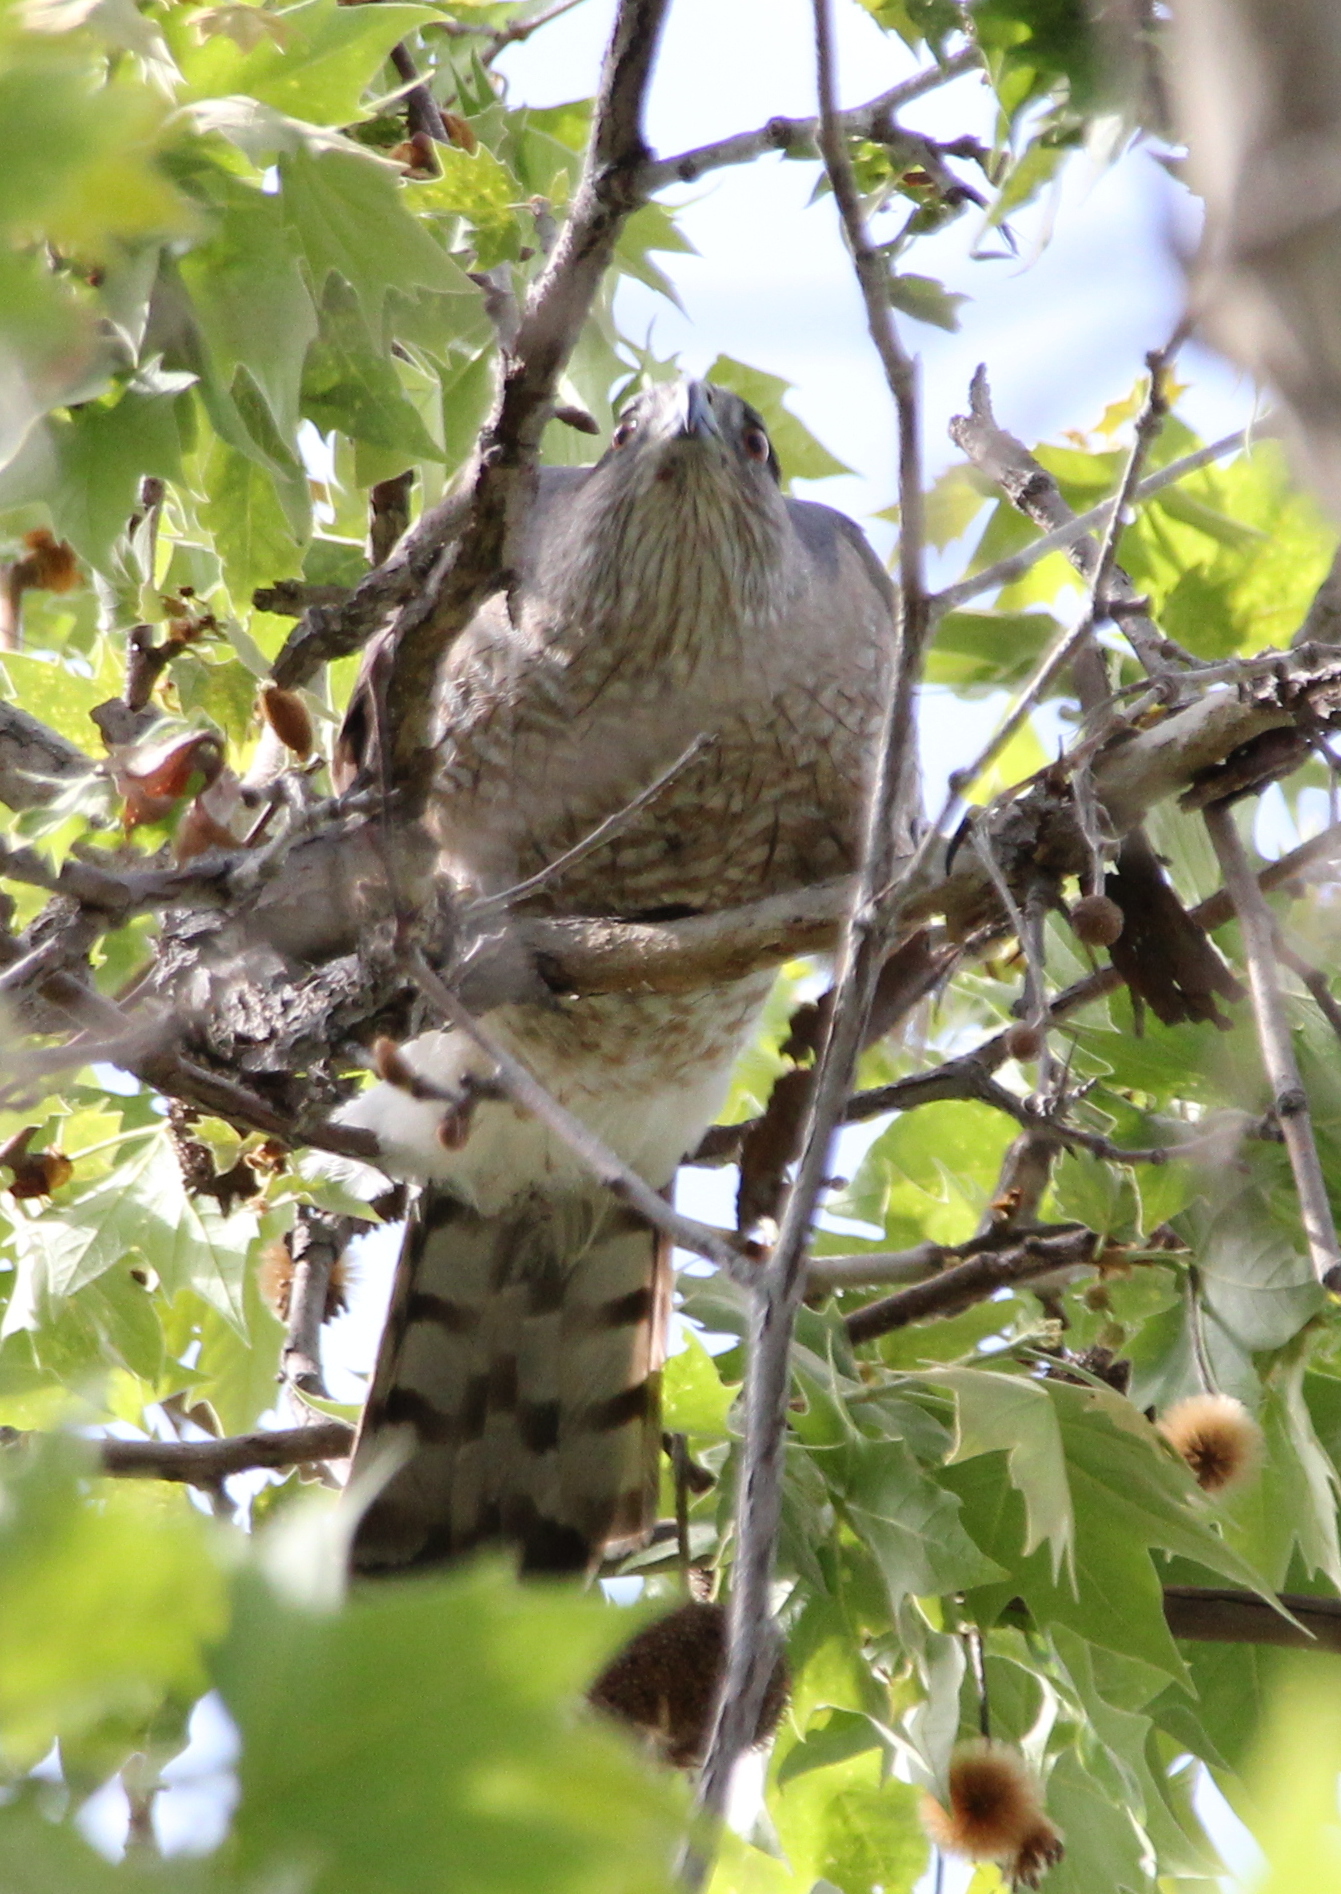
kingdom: Animalia
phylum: Chordata
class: Aves
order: Accipitriformes
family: Accipitridae
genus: Accipiter
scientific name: Accipiter cooperii
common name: Cooper's hawk
